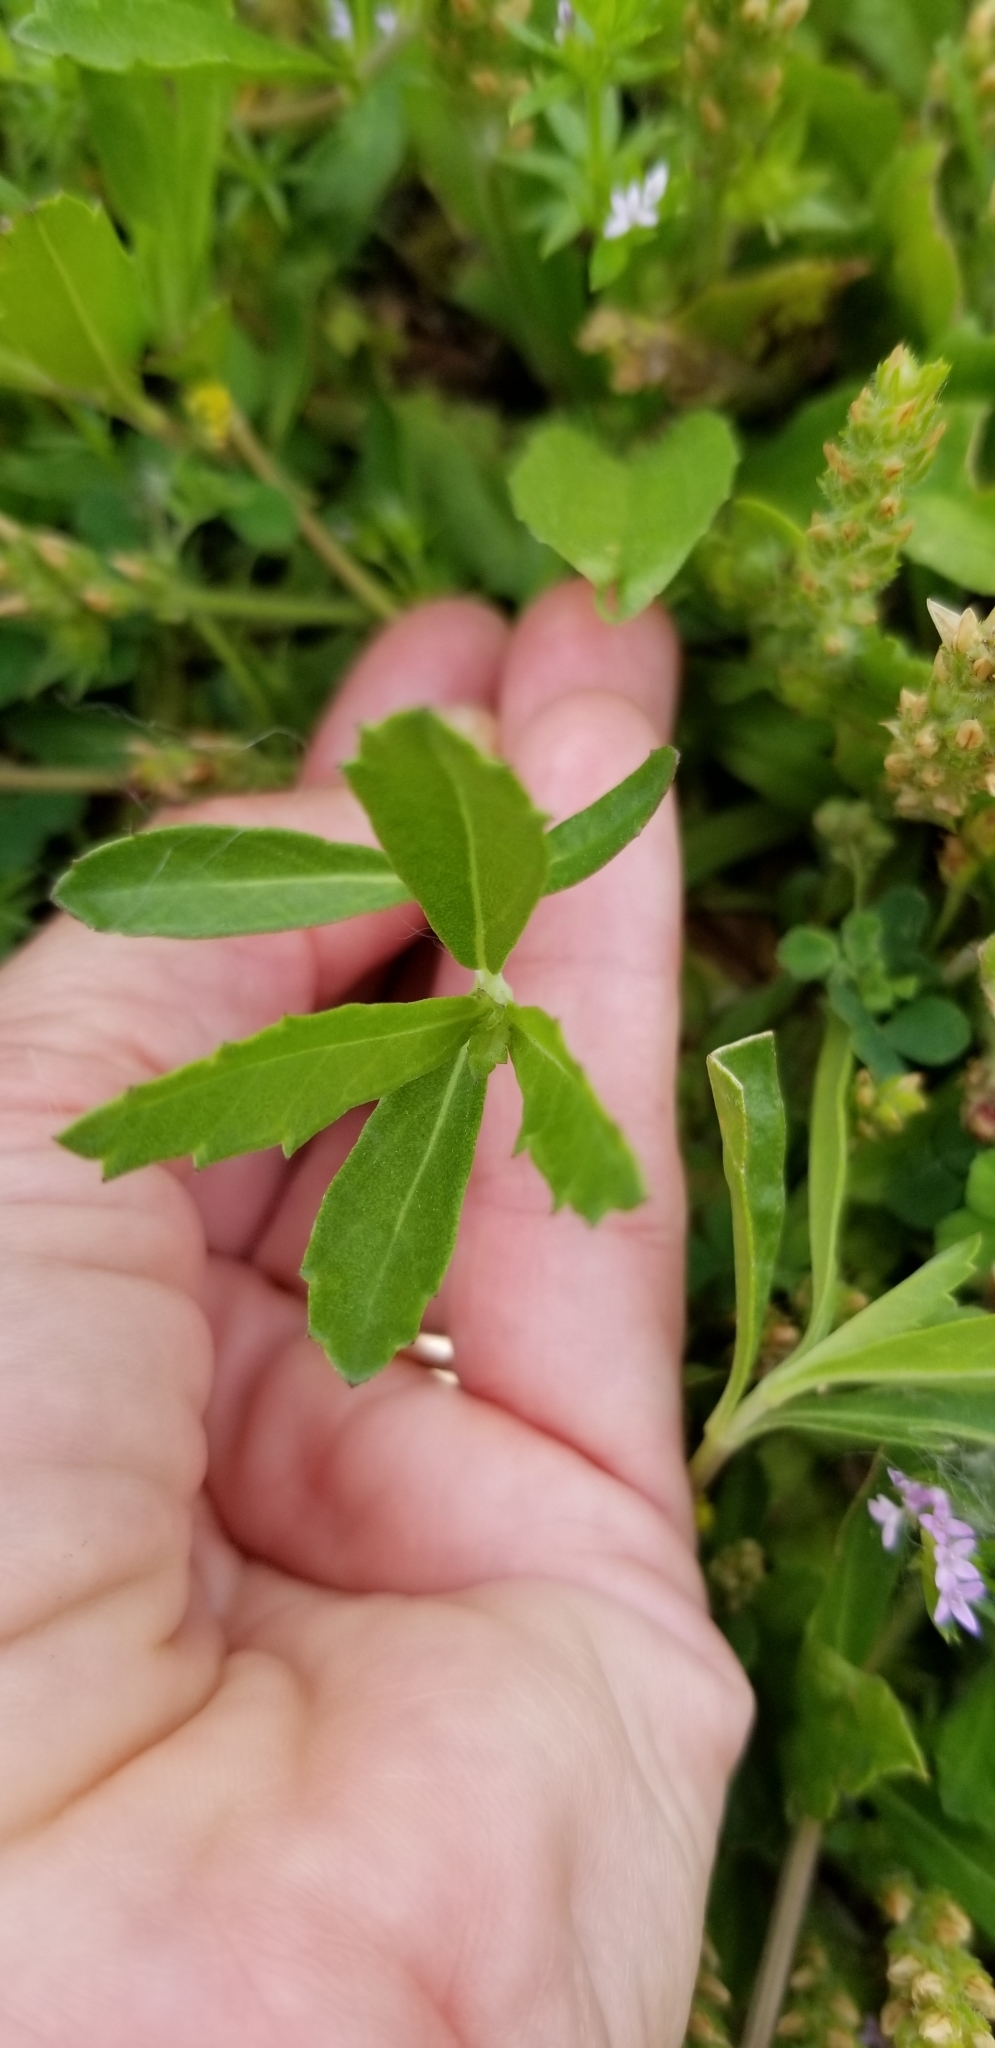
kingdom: Plantae
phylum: Tracheophyta
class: Magnoliopsida
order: Lamiales
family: Verbenaceae
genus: Phyla
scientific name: Phyla nodiflora
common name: Frogfruit
